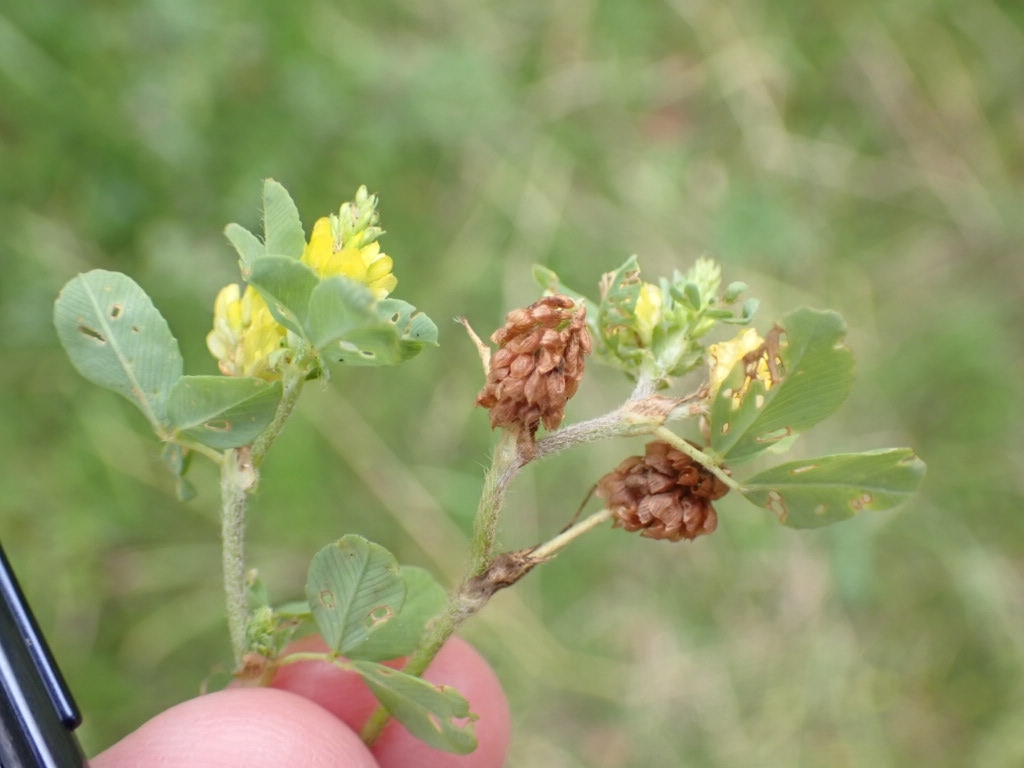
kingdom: Plantae
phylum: Tracheophyta
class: Magnoliopsida
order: Fabales
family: Fabaceae
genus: Trifolium
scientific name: Trifolium campestre
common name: Field clover
